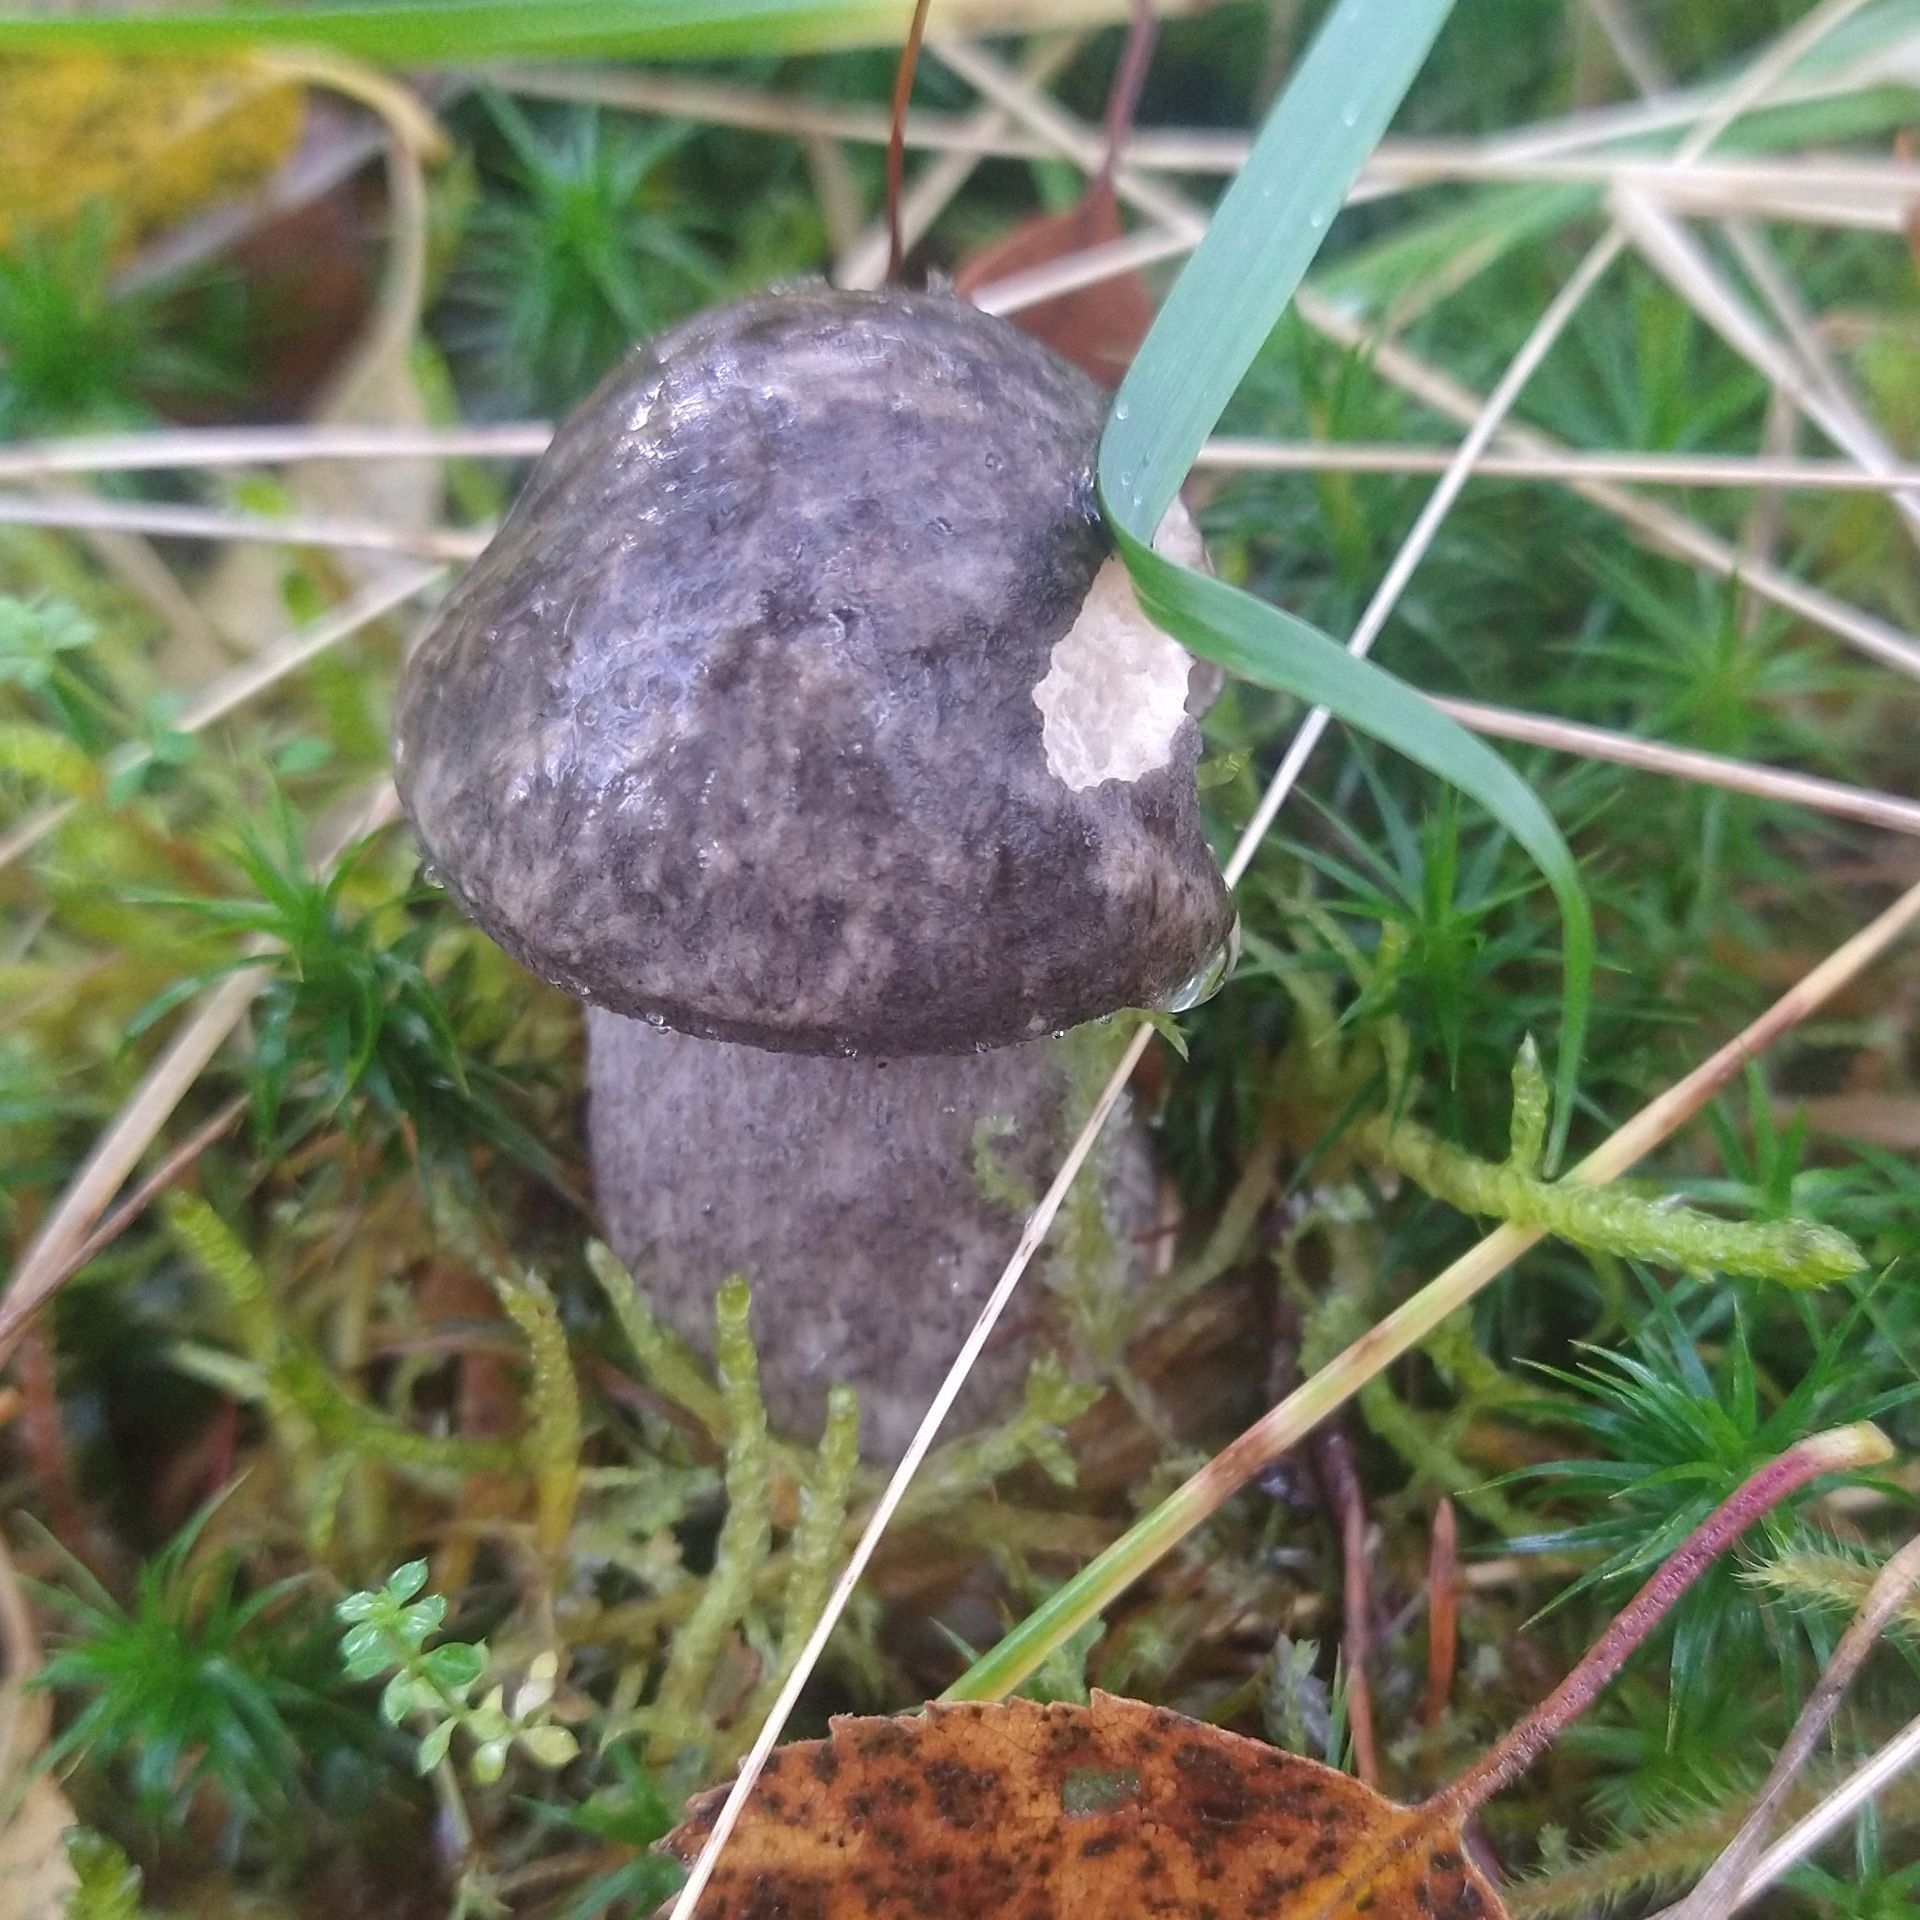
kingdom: Fungi
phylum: Basidiomycota
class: Agaricomycetes
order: Boletales
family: Boletaceae
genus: Leccinum
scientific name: Leccinum variicolor
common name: Mottled bolete
